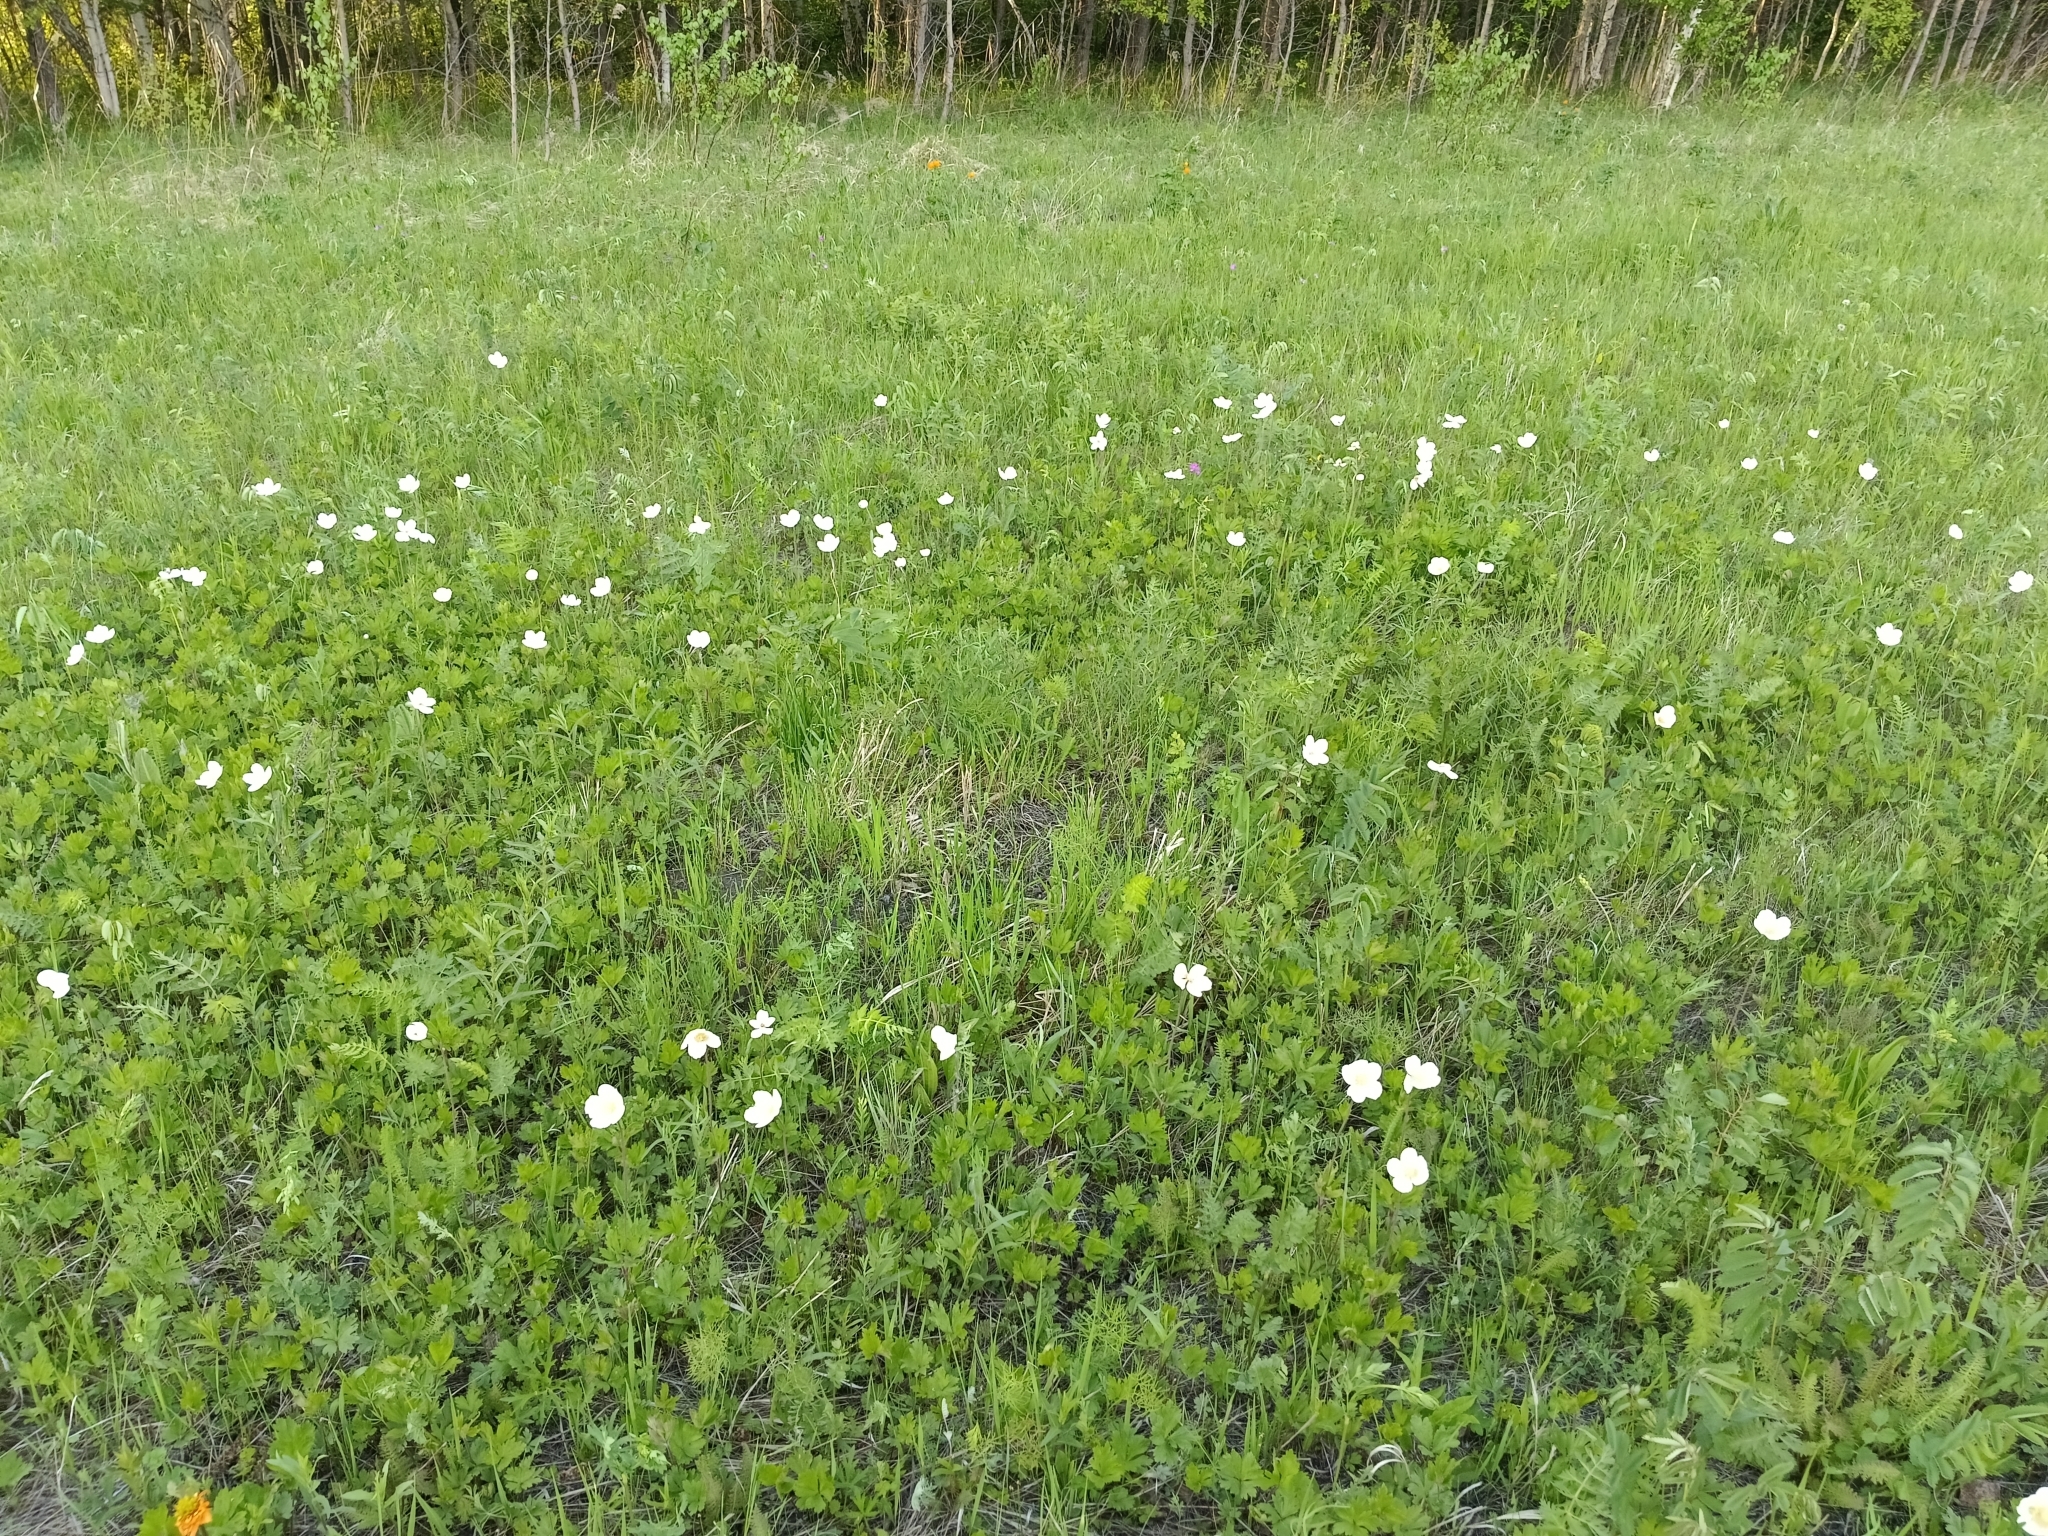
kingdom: Plantae
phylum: Tracheophyta
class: Magnoliopsida
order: Ranunculales
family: Ranunculaceae
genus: Anemone
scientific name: Anemone sylvestris
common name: Snowdrop anemone
